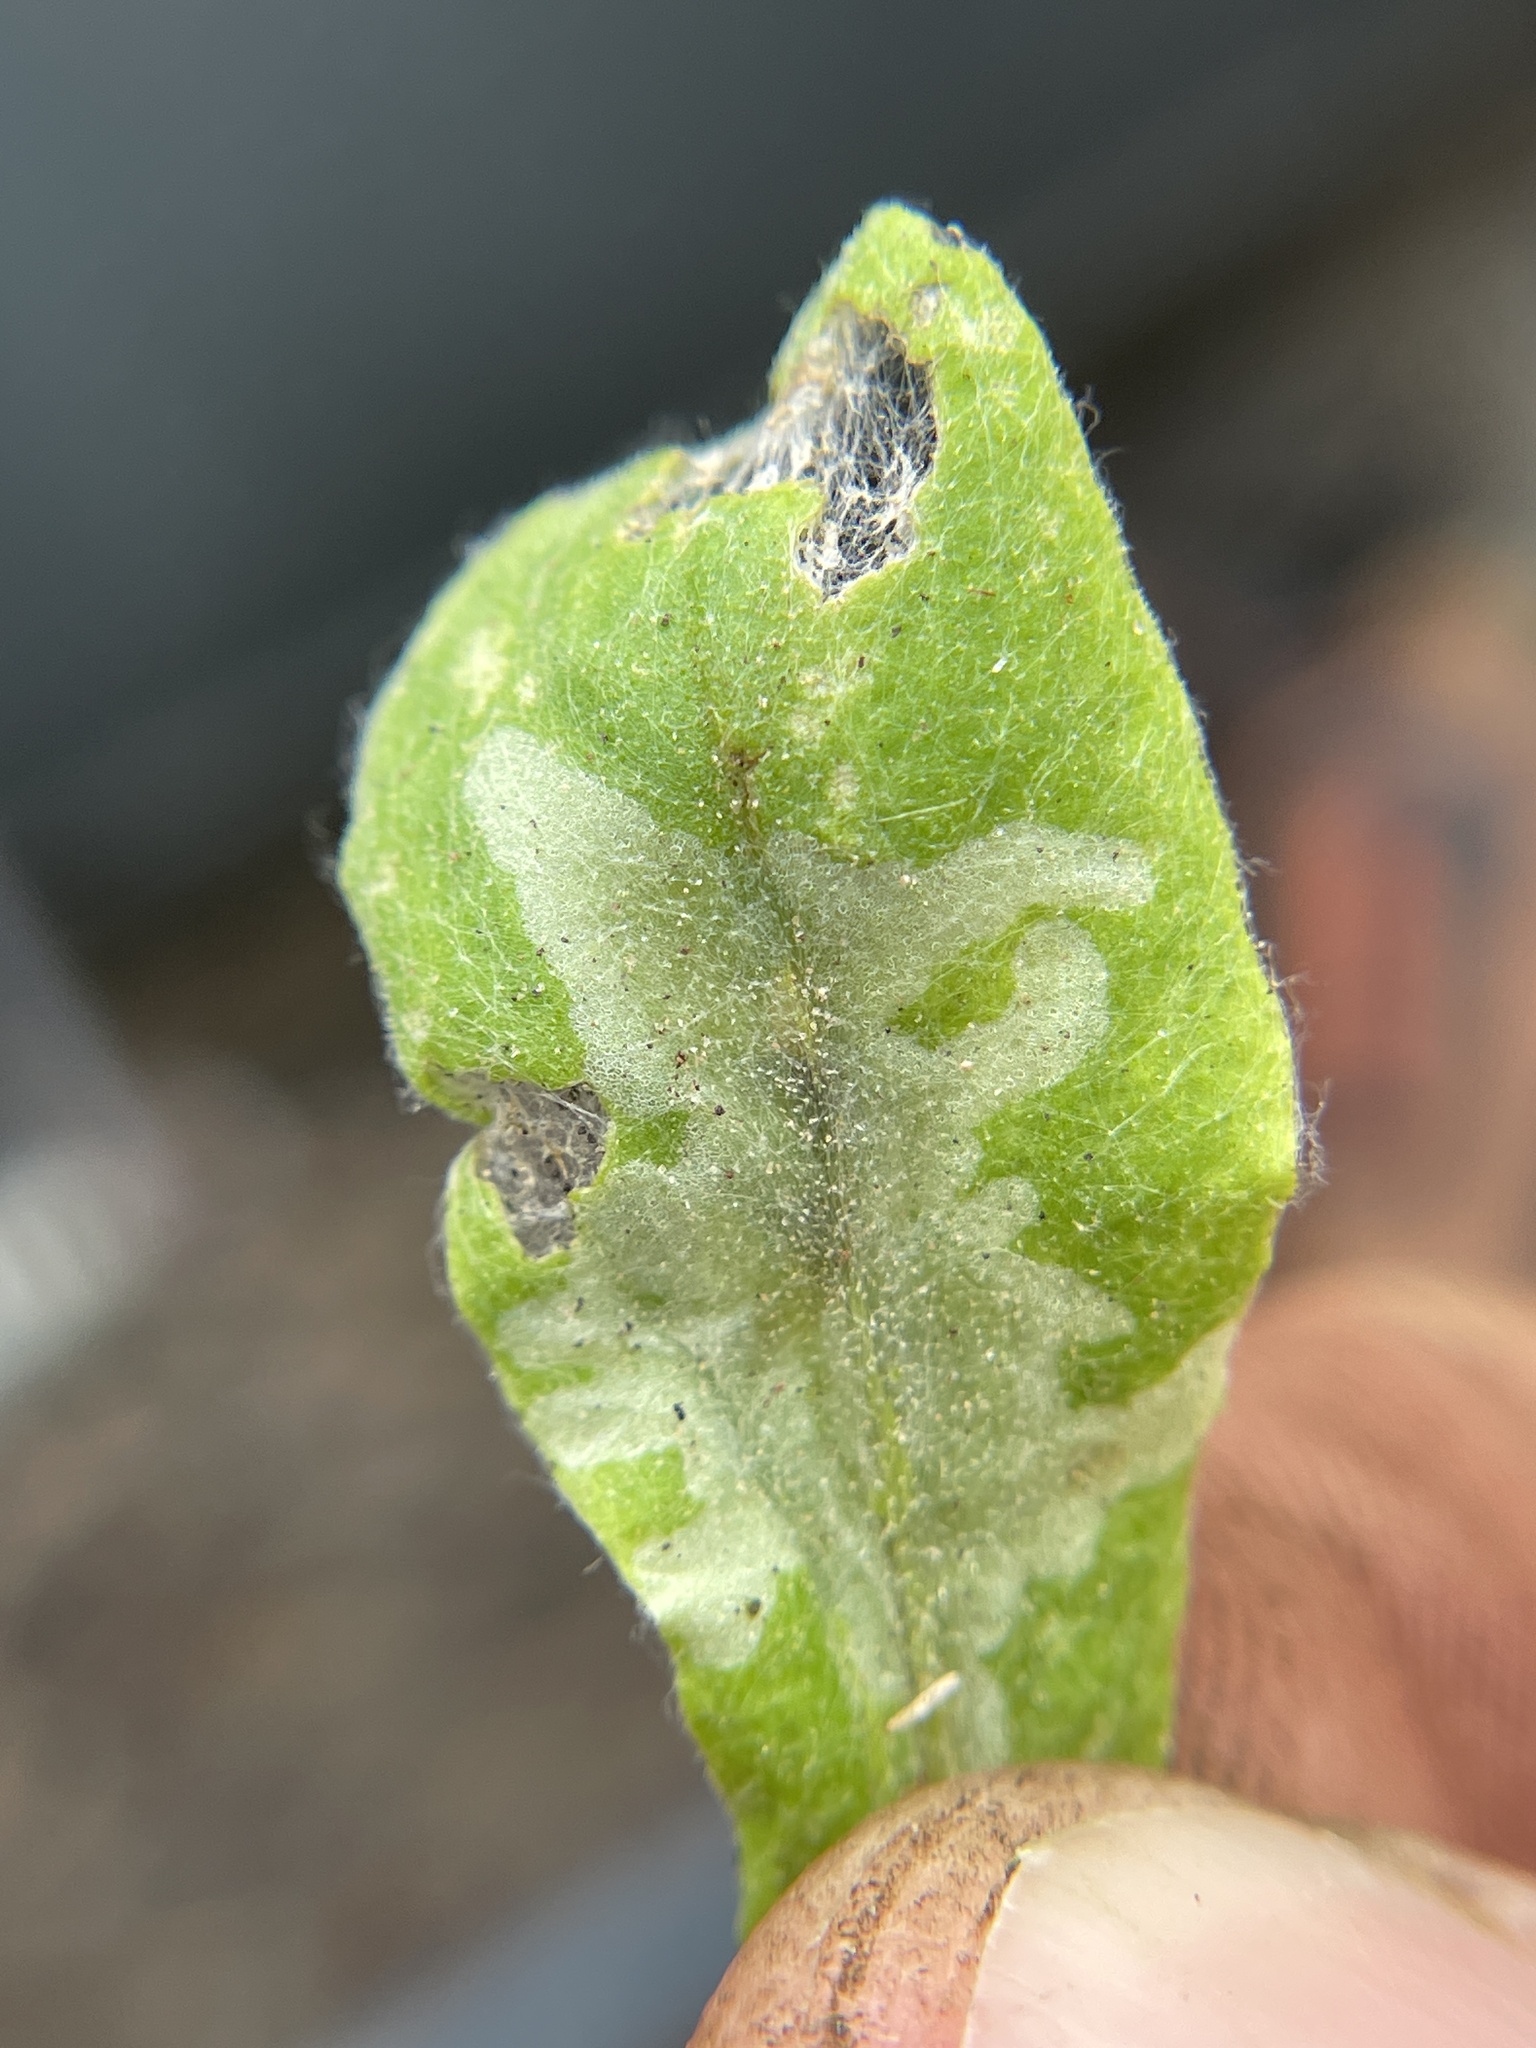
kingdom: Animalia
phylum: Arthropoda
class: Insecta
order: Diptera
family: Agromyzidae
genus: Calycomyza
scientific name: Calycomyza platyptera
